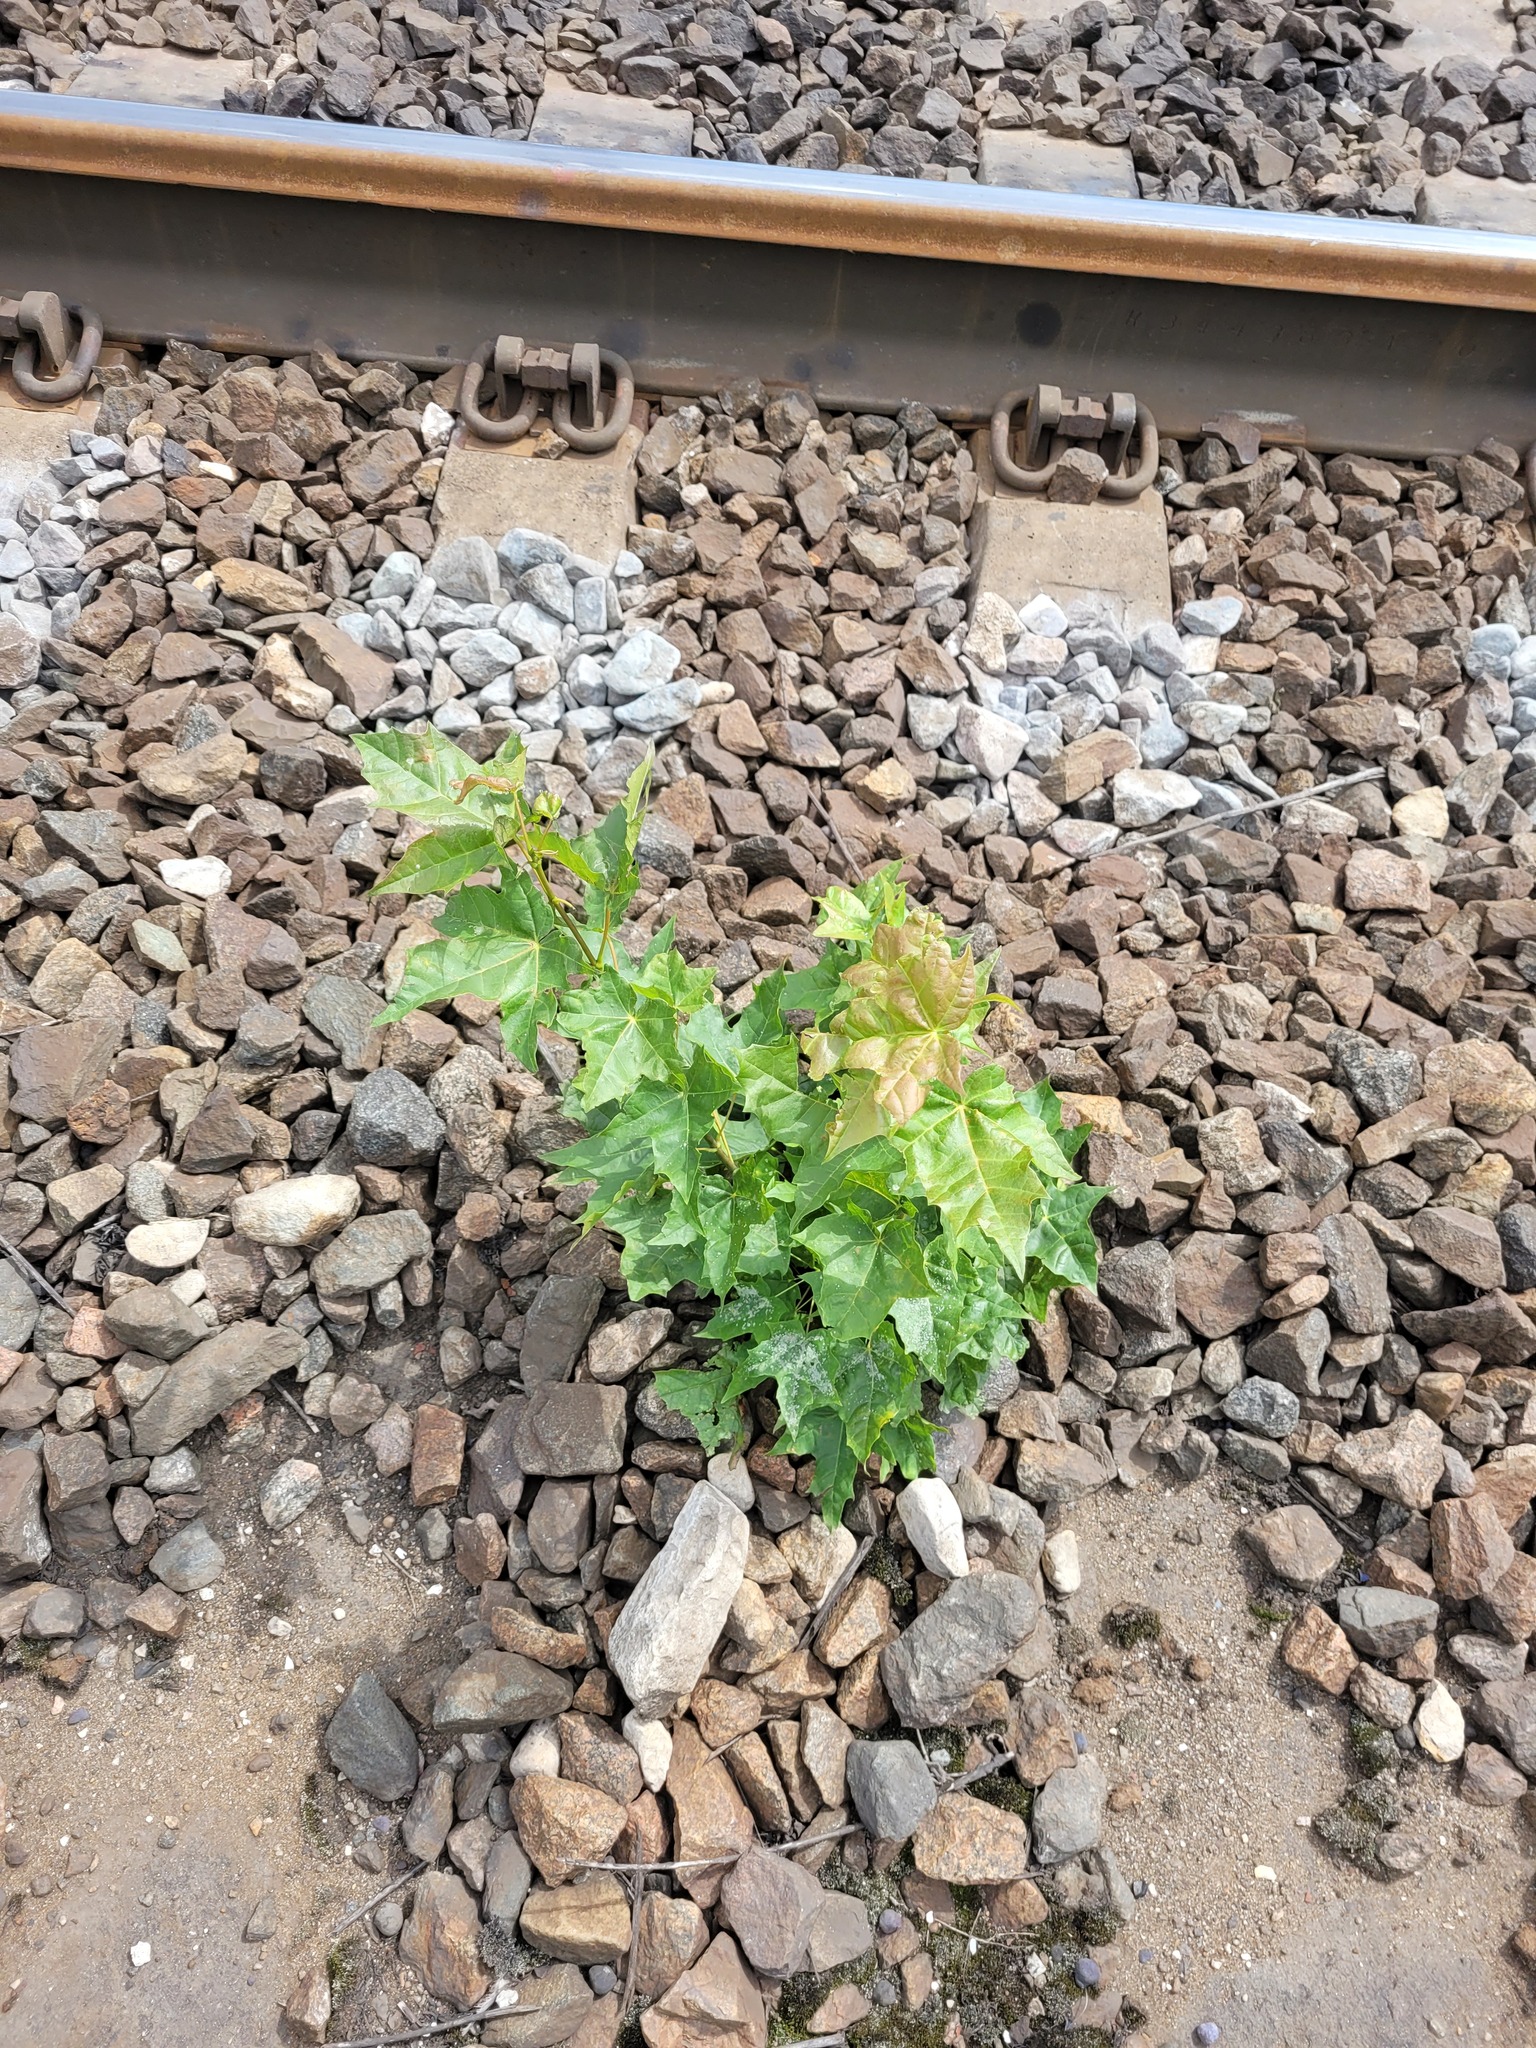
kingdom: Plantae
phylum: Tracheophyta
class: Magnoliopsida
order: Sapindales
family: Sapindaceae
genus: Acer
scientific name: Acer platanoides
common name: Norway maple
